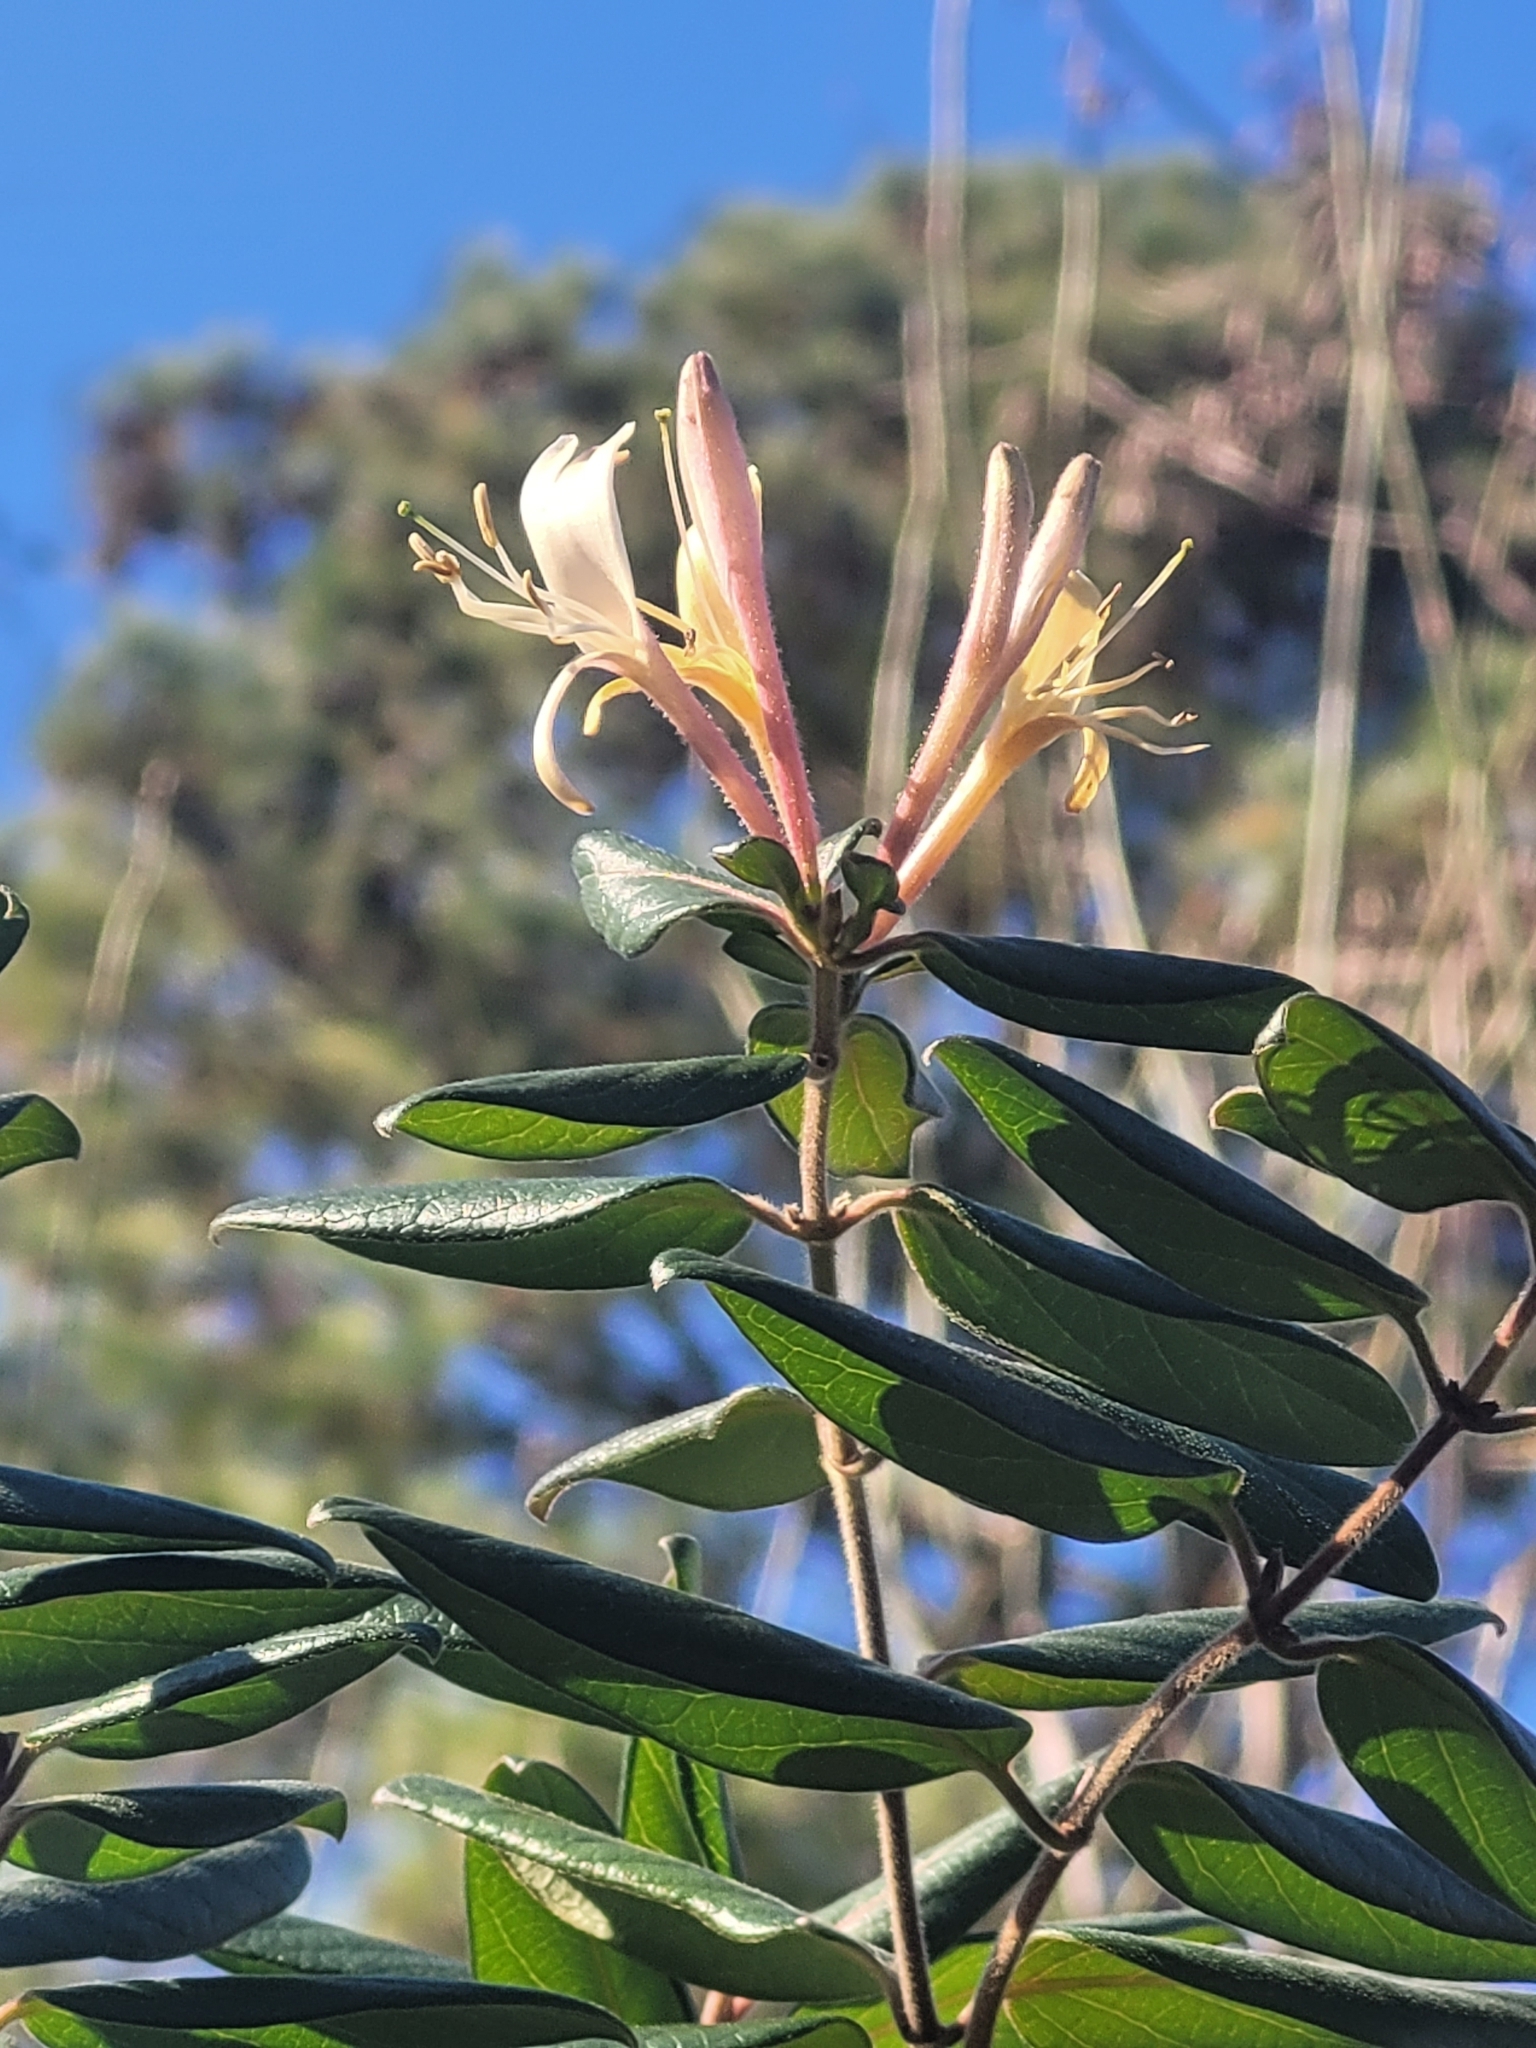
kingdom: Plantae
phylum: Tracheophyta
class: Magnoliopsida
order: Dipsacales
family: Caprifoliaceae
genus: Lonicera
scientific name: Lonicera japonica
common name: Japanese honeysuckle
